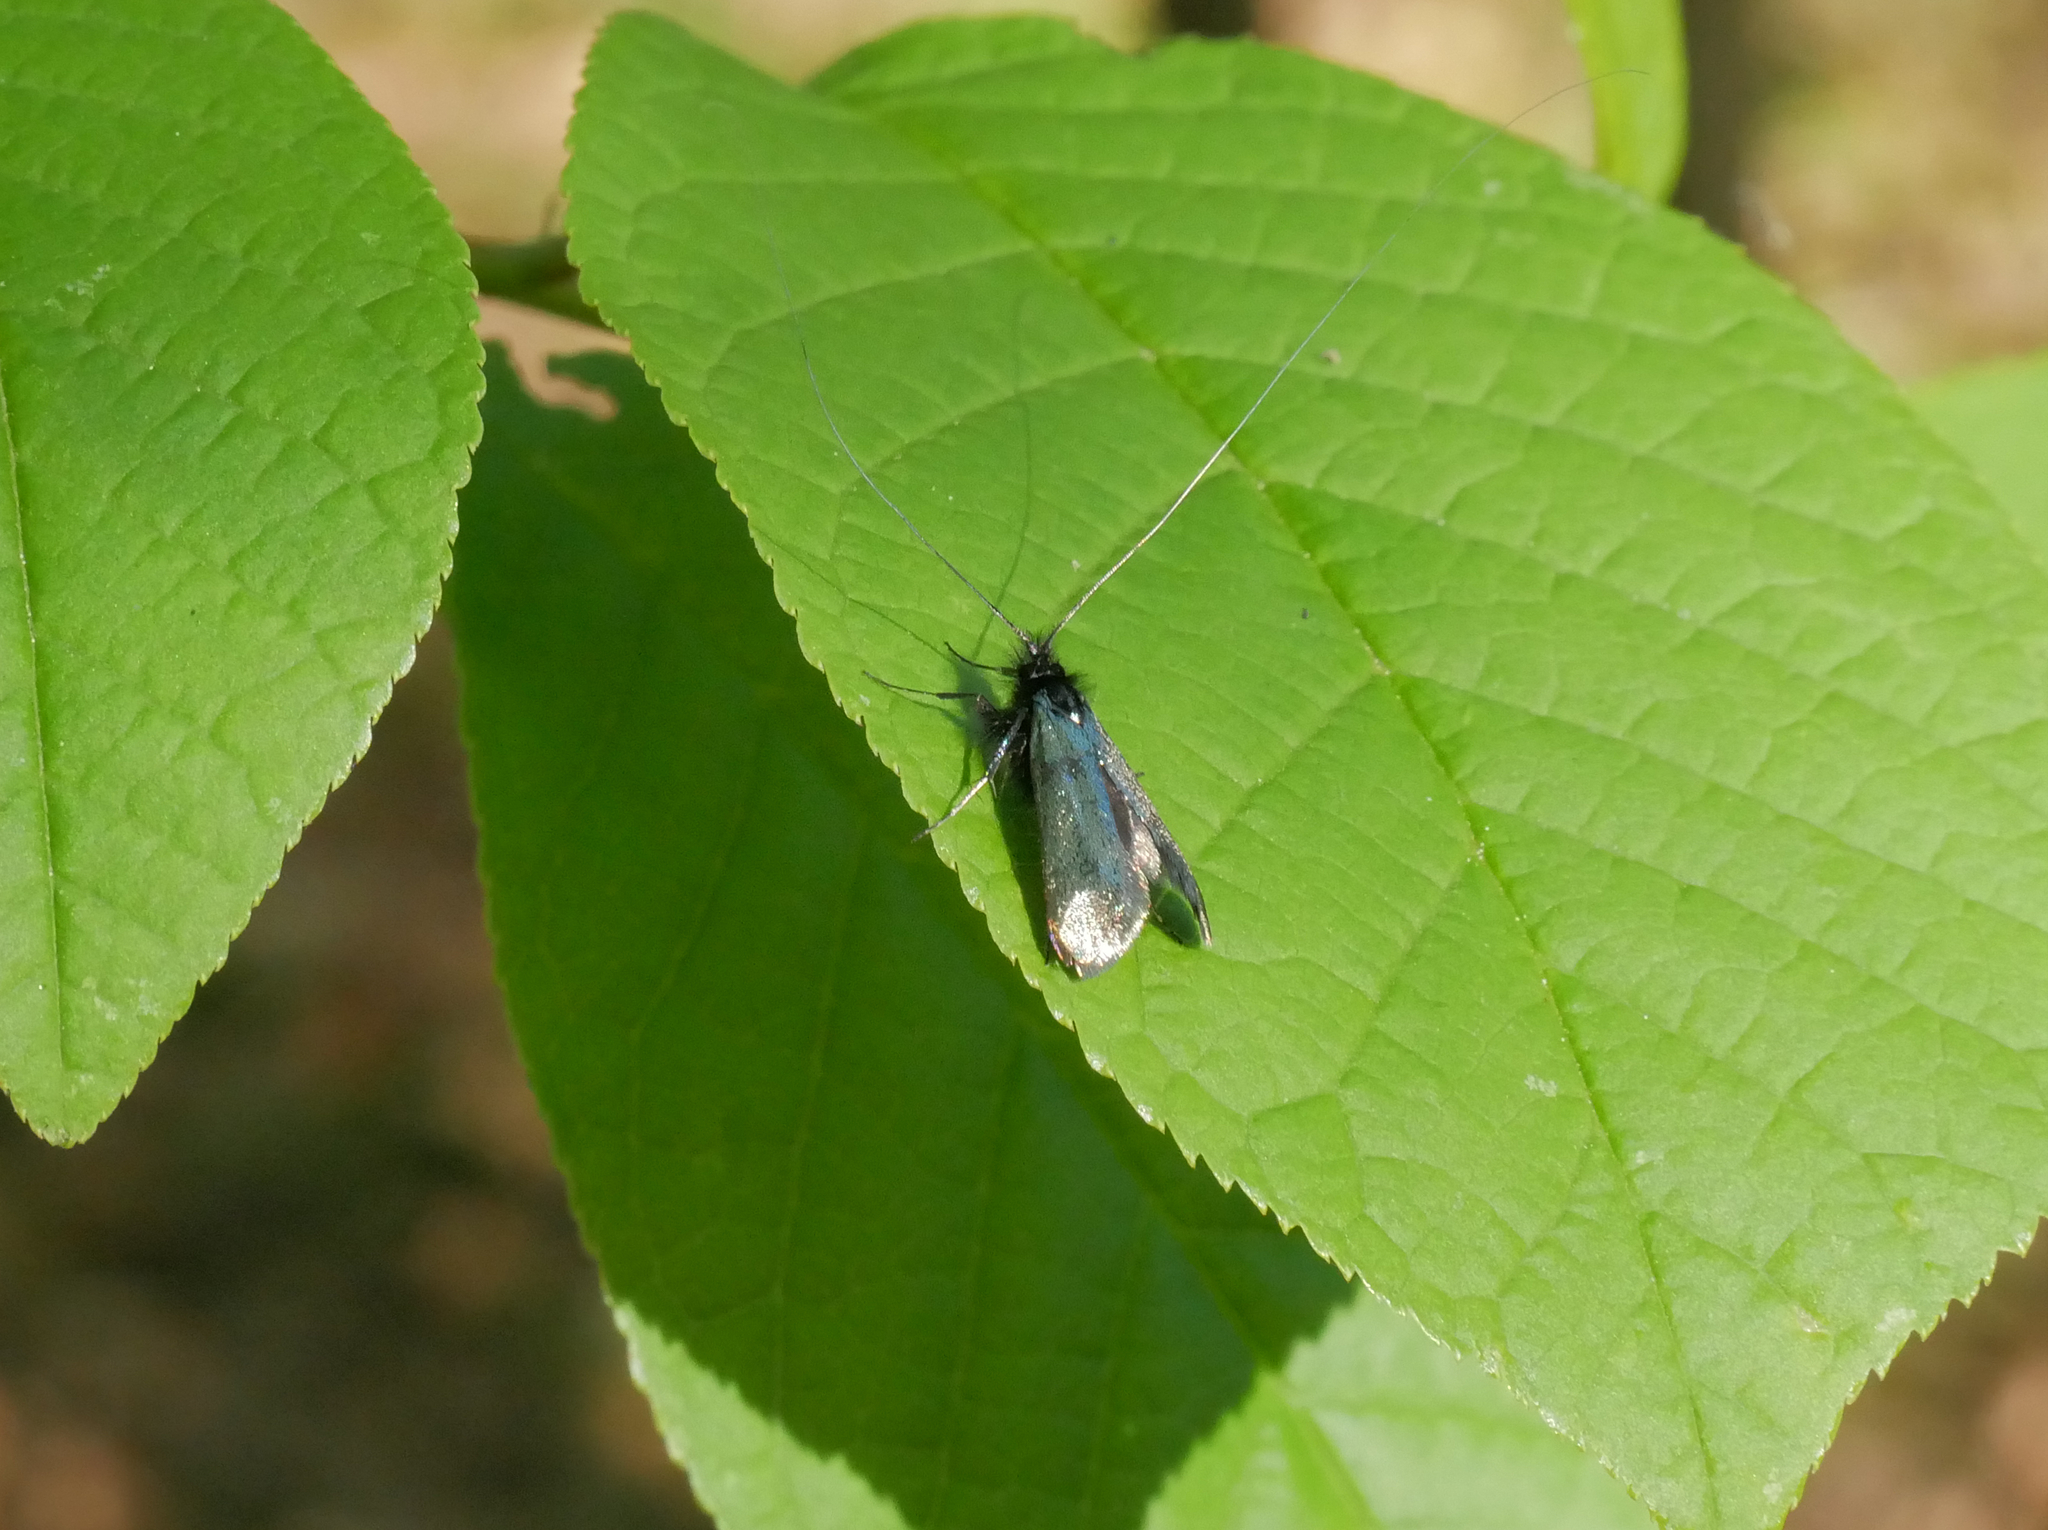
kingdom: Animalia
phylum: Arthropoda
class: Insecta
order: Lepidoptera
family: Adelidae
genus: Adela
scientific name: Adela viridella
